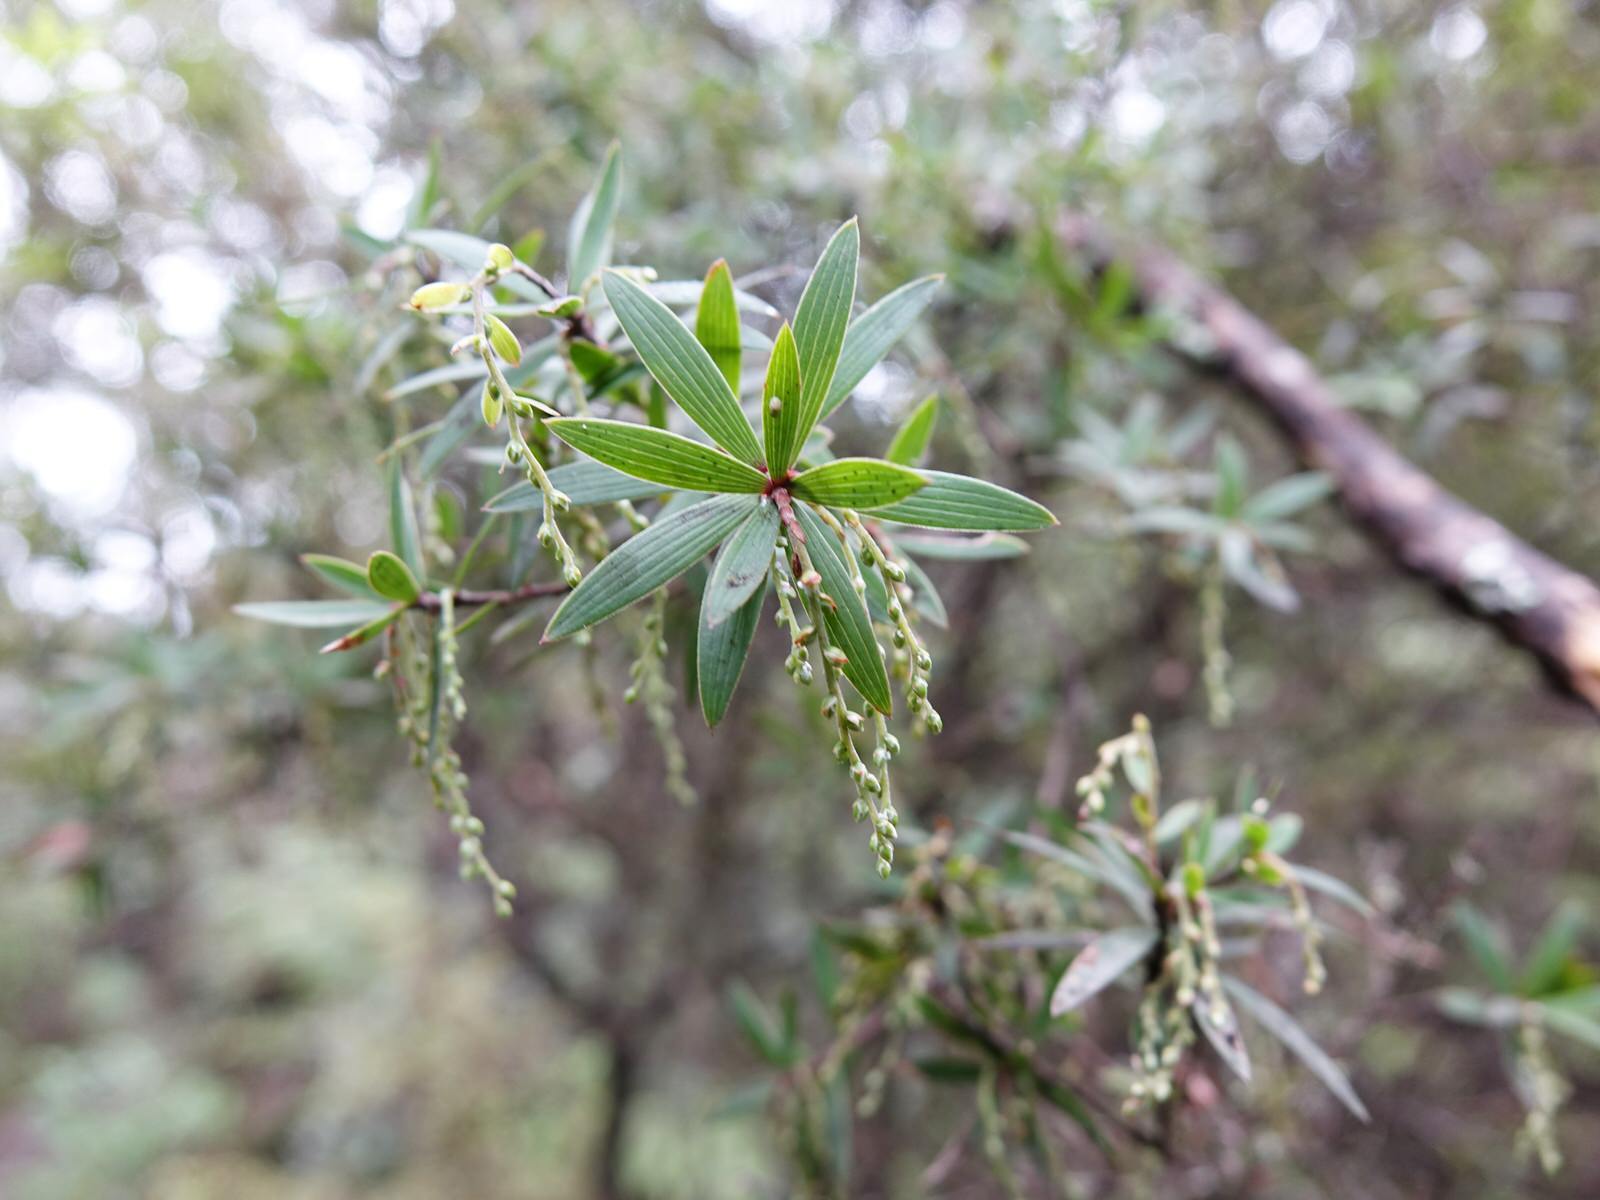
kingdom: Plantae
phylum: Tracheophyta
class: Magnoliopsida
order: Ericales
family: Ericaceae
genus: Leucopogon
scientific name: Leucopogon fasciculatus
